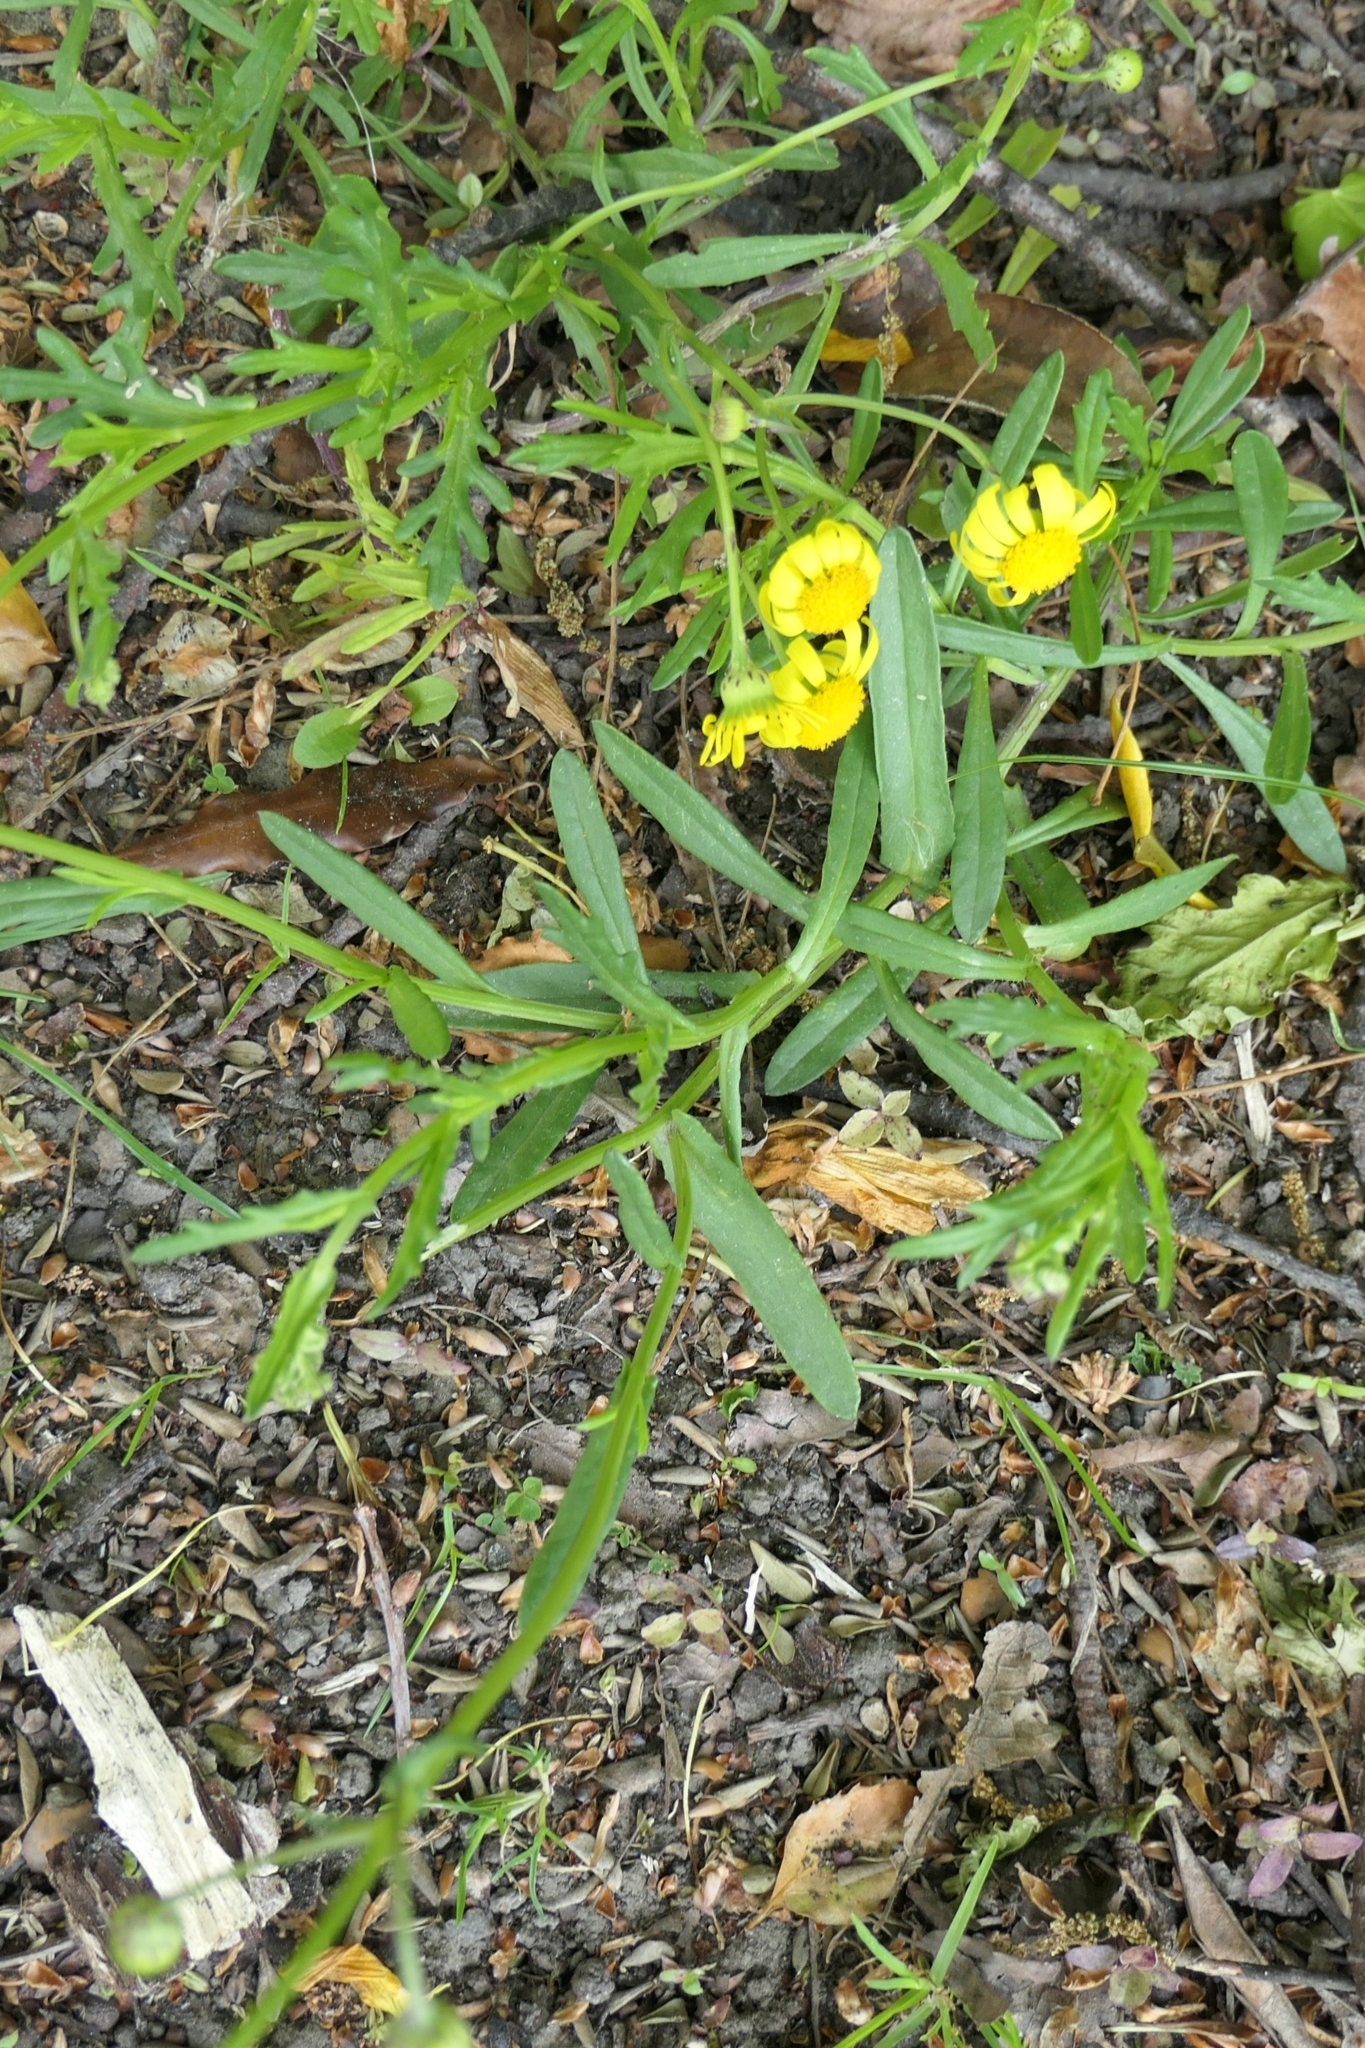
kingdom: Plantae
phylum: Tracheophyta
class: Magnoliopsida
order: Asterales
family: Asteraceae
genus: Senecio
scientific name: Senecio skirrhodon
